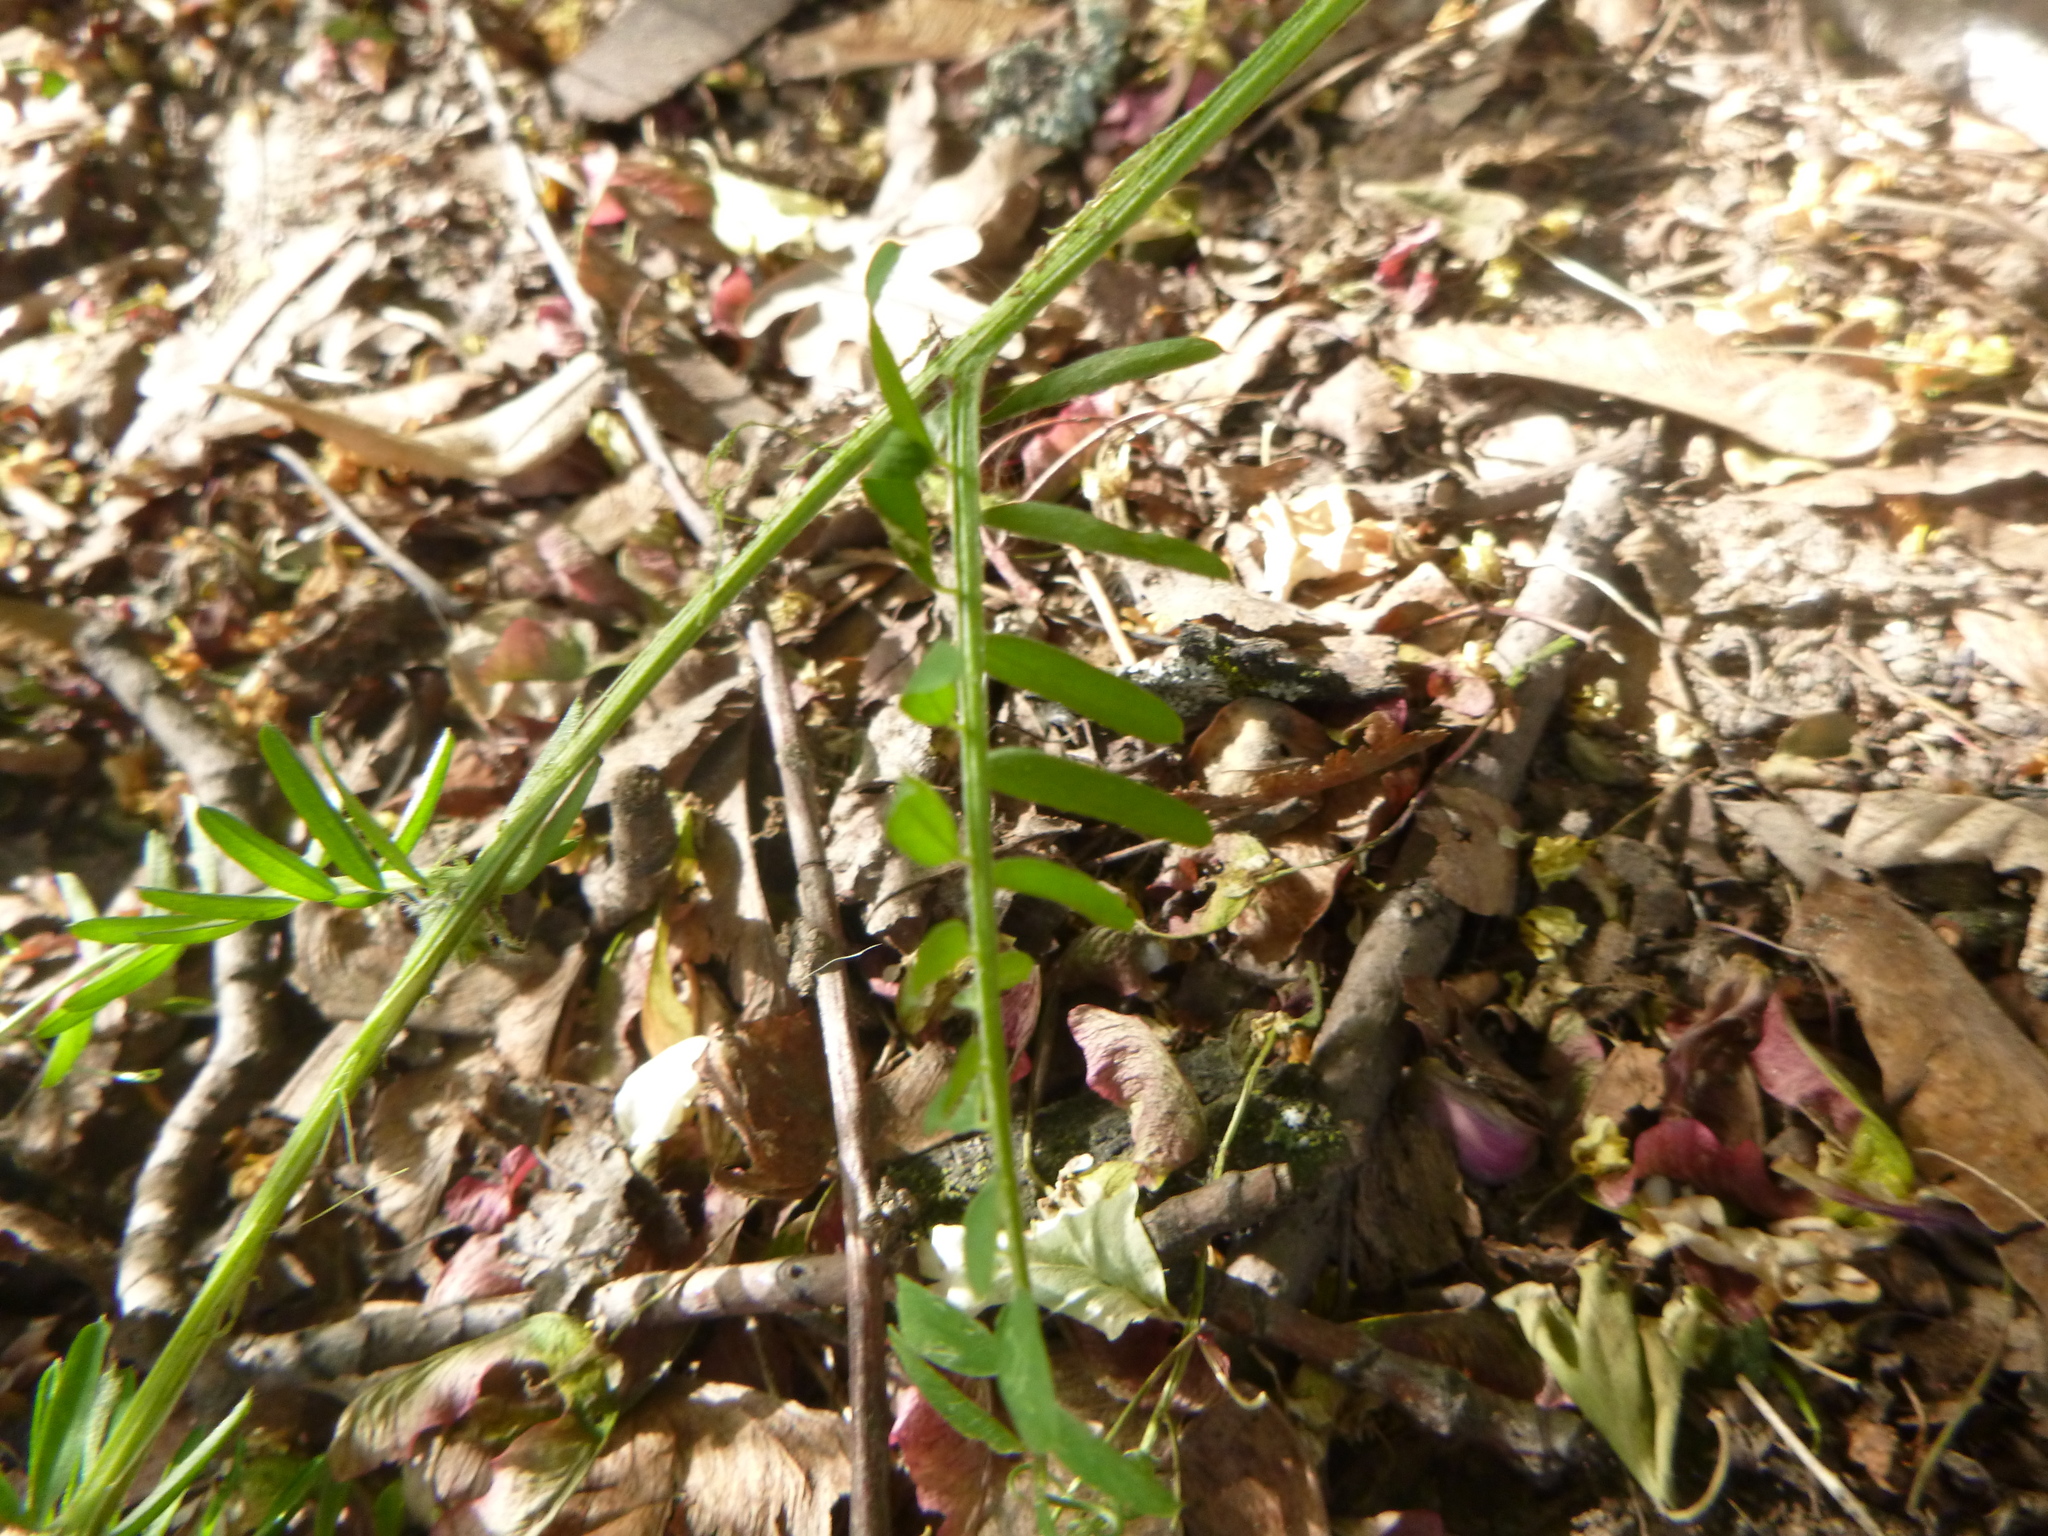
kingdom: Plantae
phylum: Tracheophyta
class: Magnoliopsida
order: Fabales
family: Fabaceae
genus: Vicia
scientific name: Vicia villosa
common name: Fodder vetch
